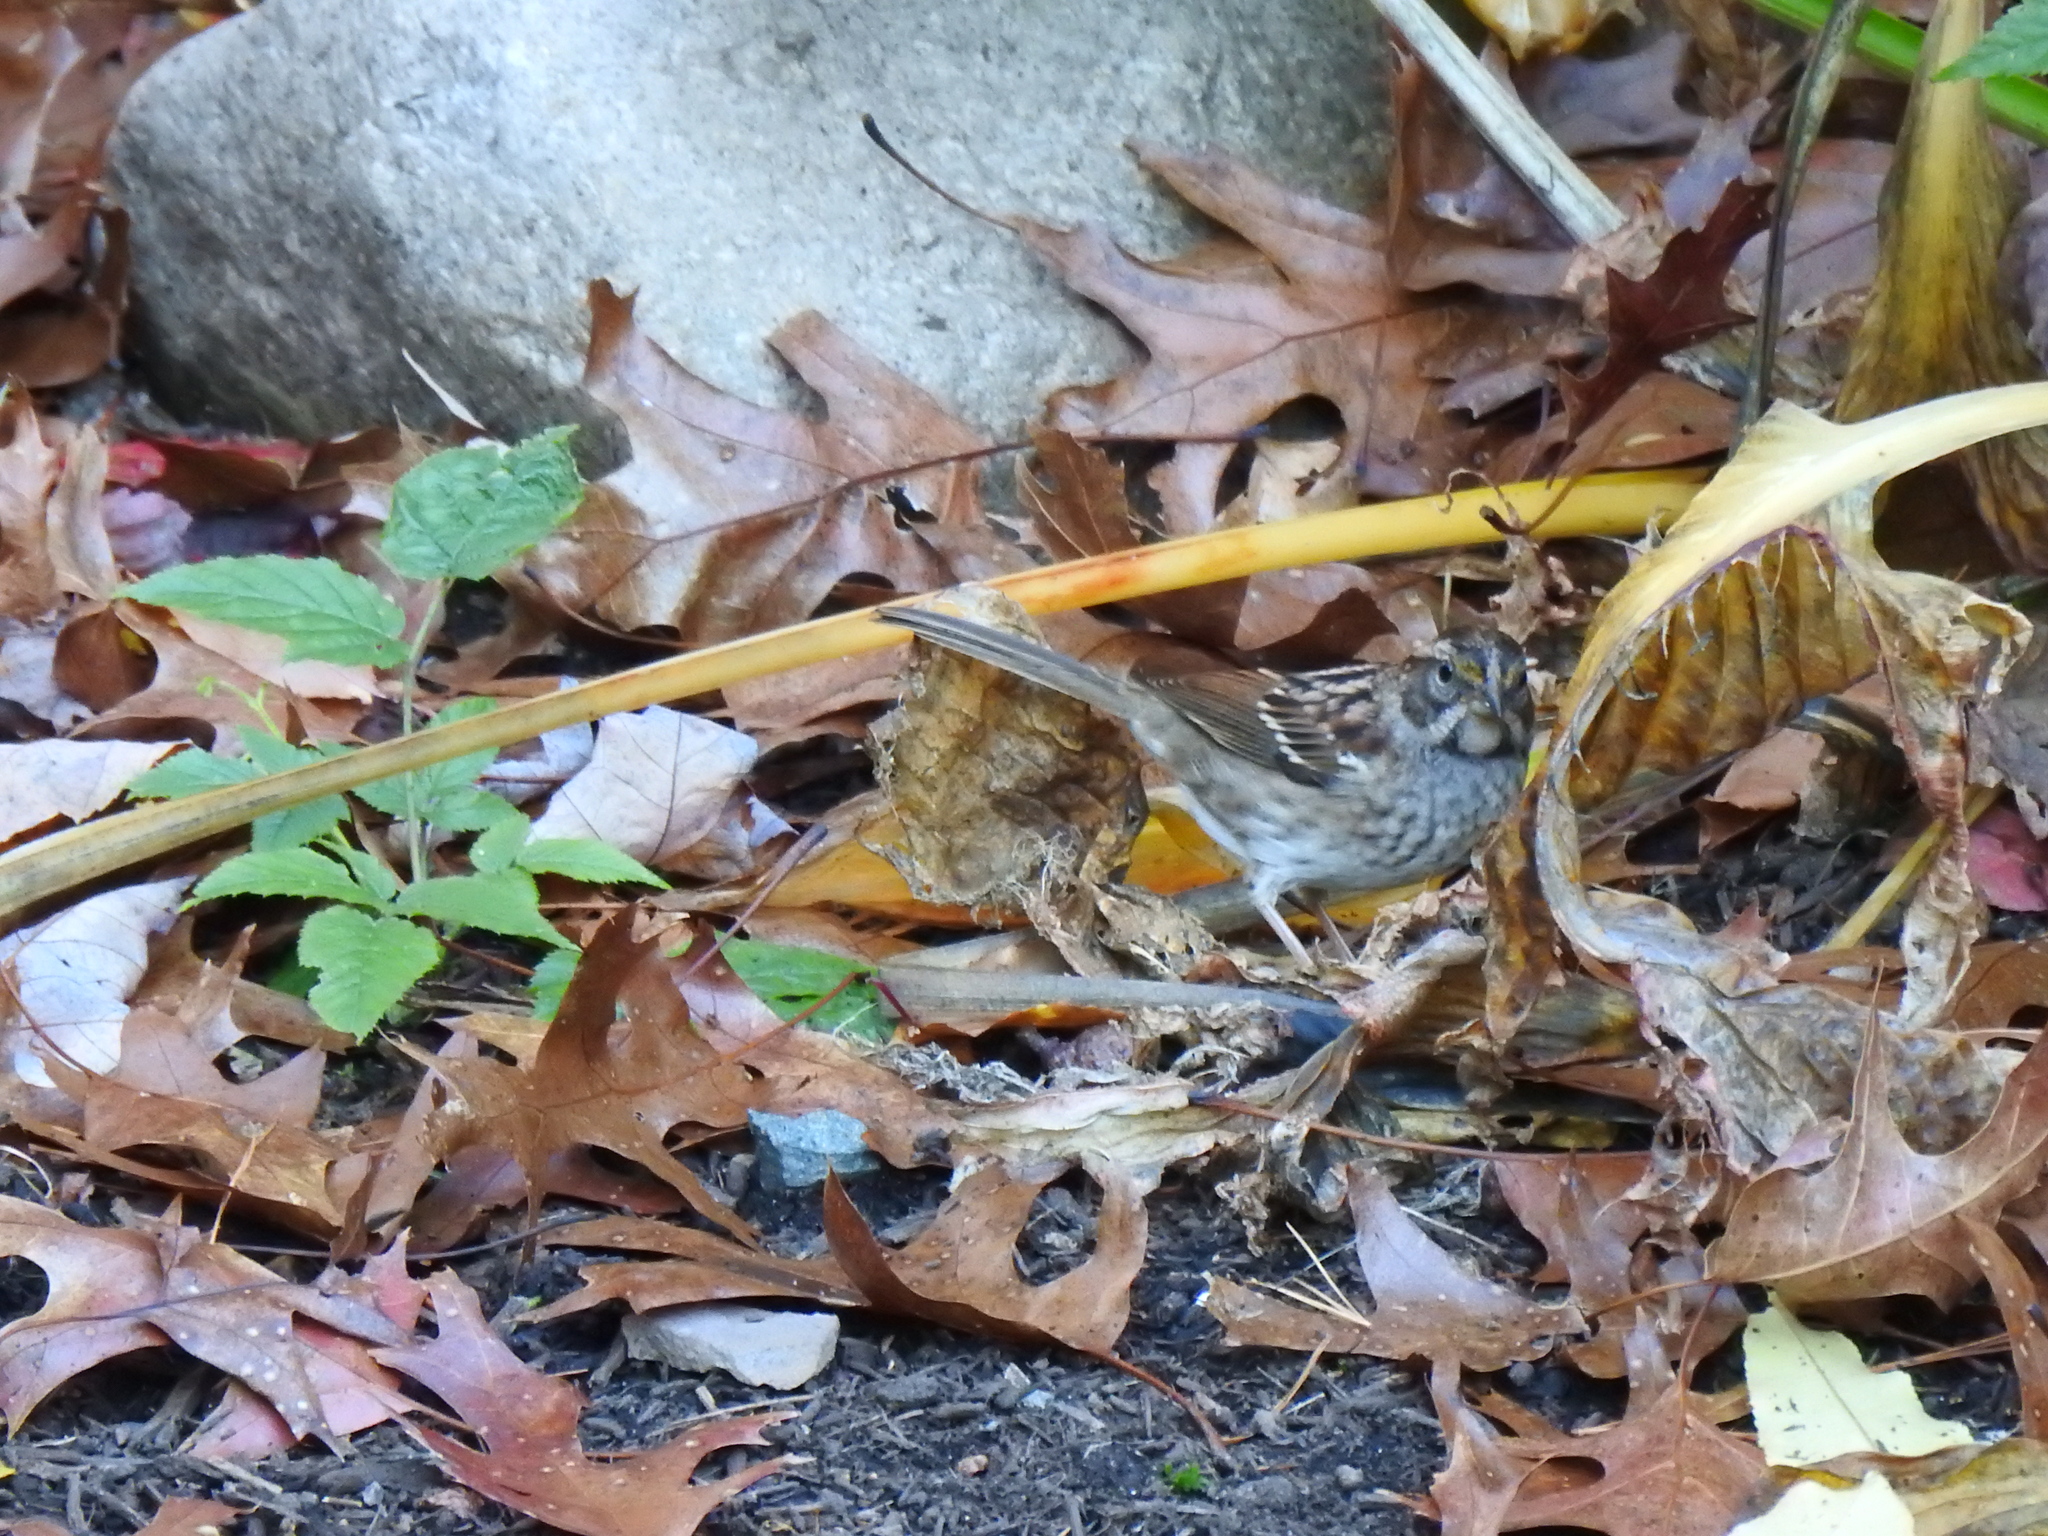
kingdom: Animalia
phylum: Chordata
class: Aves
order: Passeriformes
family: Passerellidae
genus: Zonotrichia
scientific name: Zonotrichia albicollis
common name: White-throated sparrow
